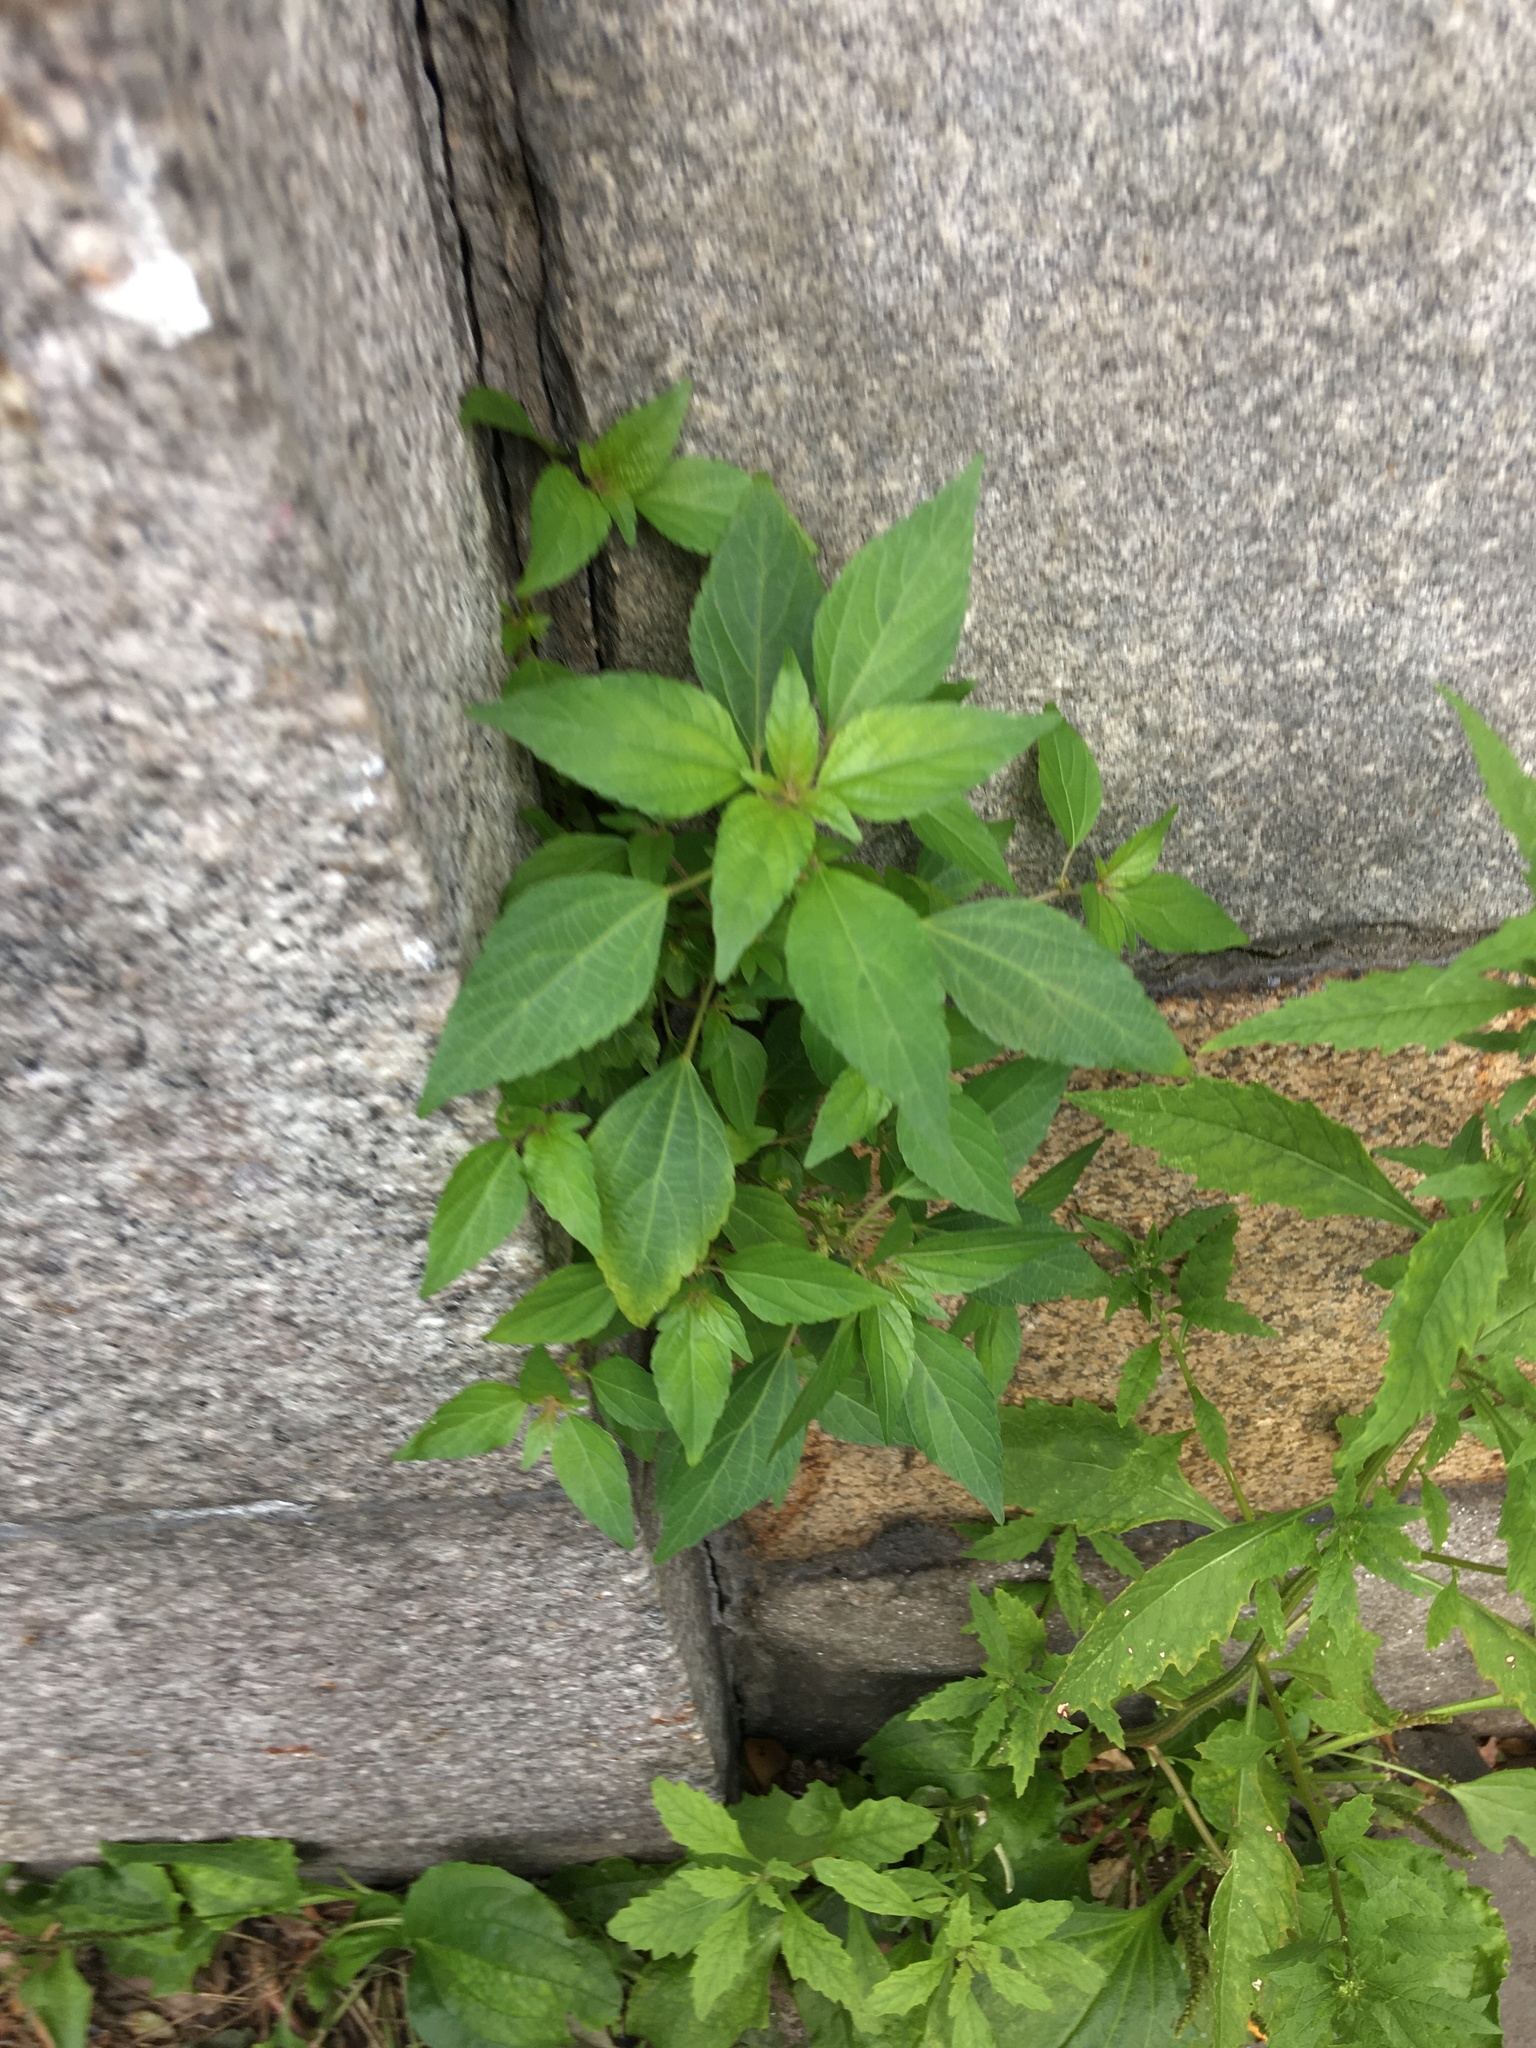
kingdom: Plantae
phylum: Tracheophyta
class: Magnoliopsida
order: Malpighiales
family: Euphorbiaceae
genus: Acalypha
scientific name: Acalypha rhomboidea
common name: Rhombic copperleaf
